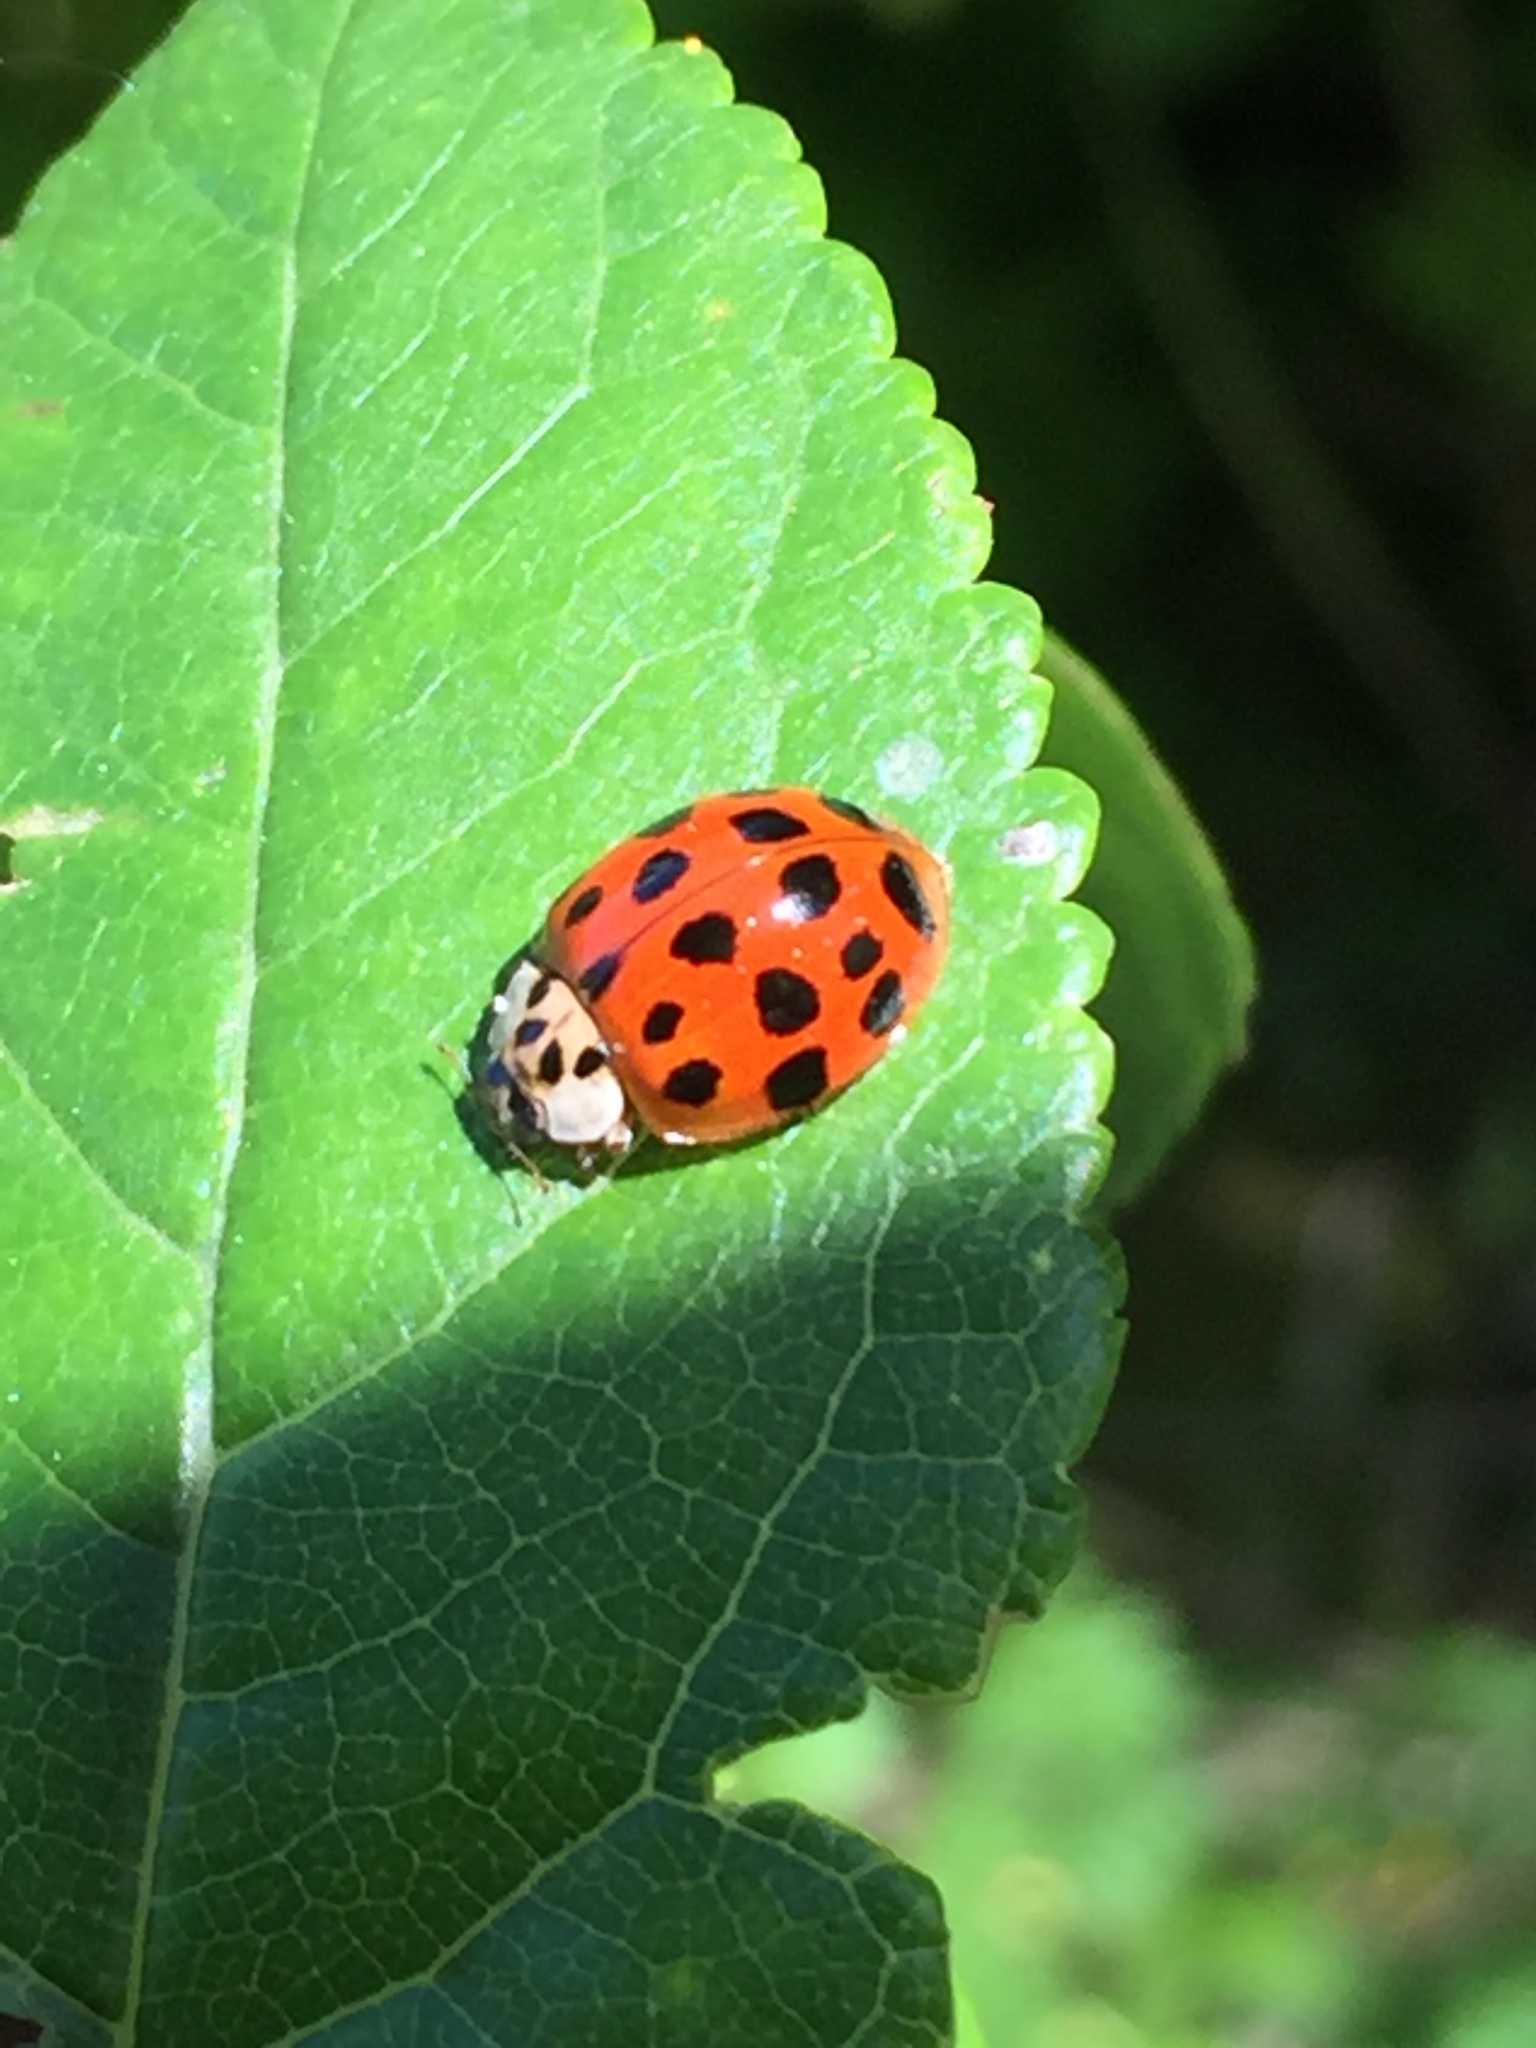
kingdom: Animalia
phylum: Arthropoda
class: Insecta
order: Coleoptera
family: Coccinellidae
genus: Harmonia
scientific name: Harmonia axyridis
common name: Harlequin ladybird
